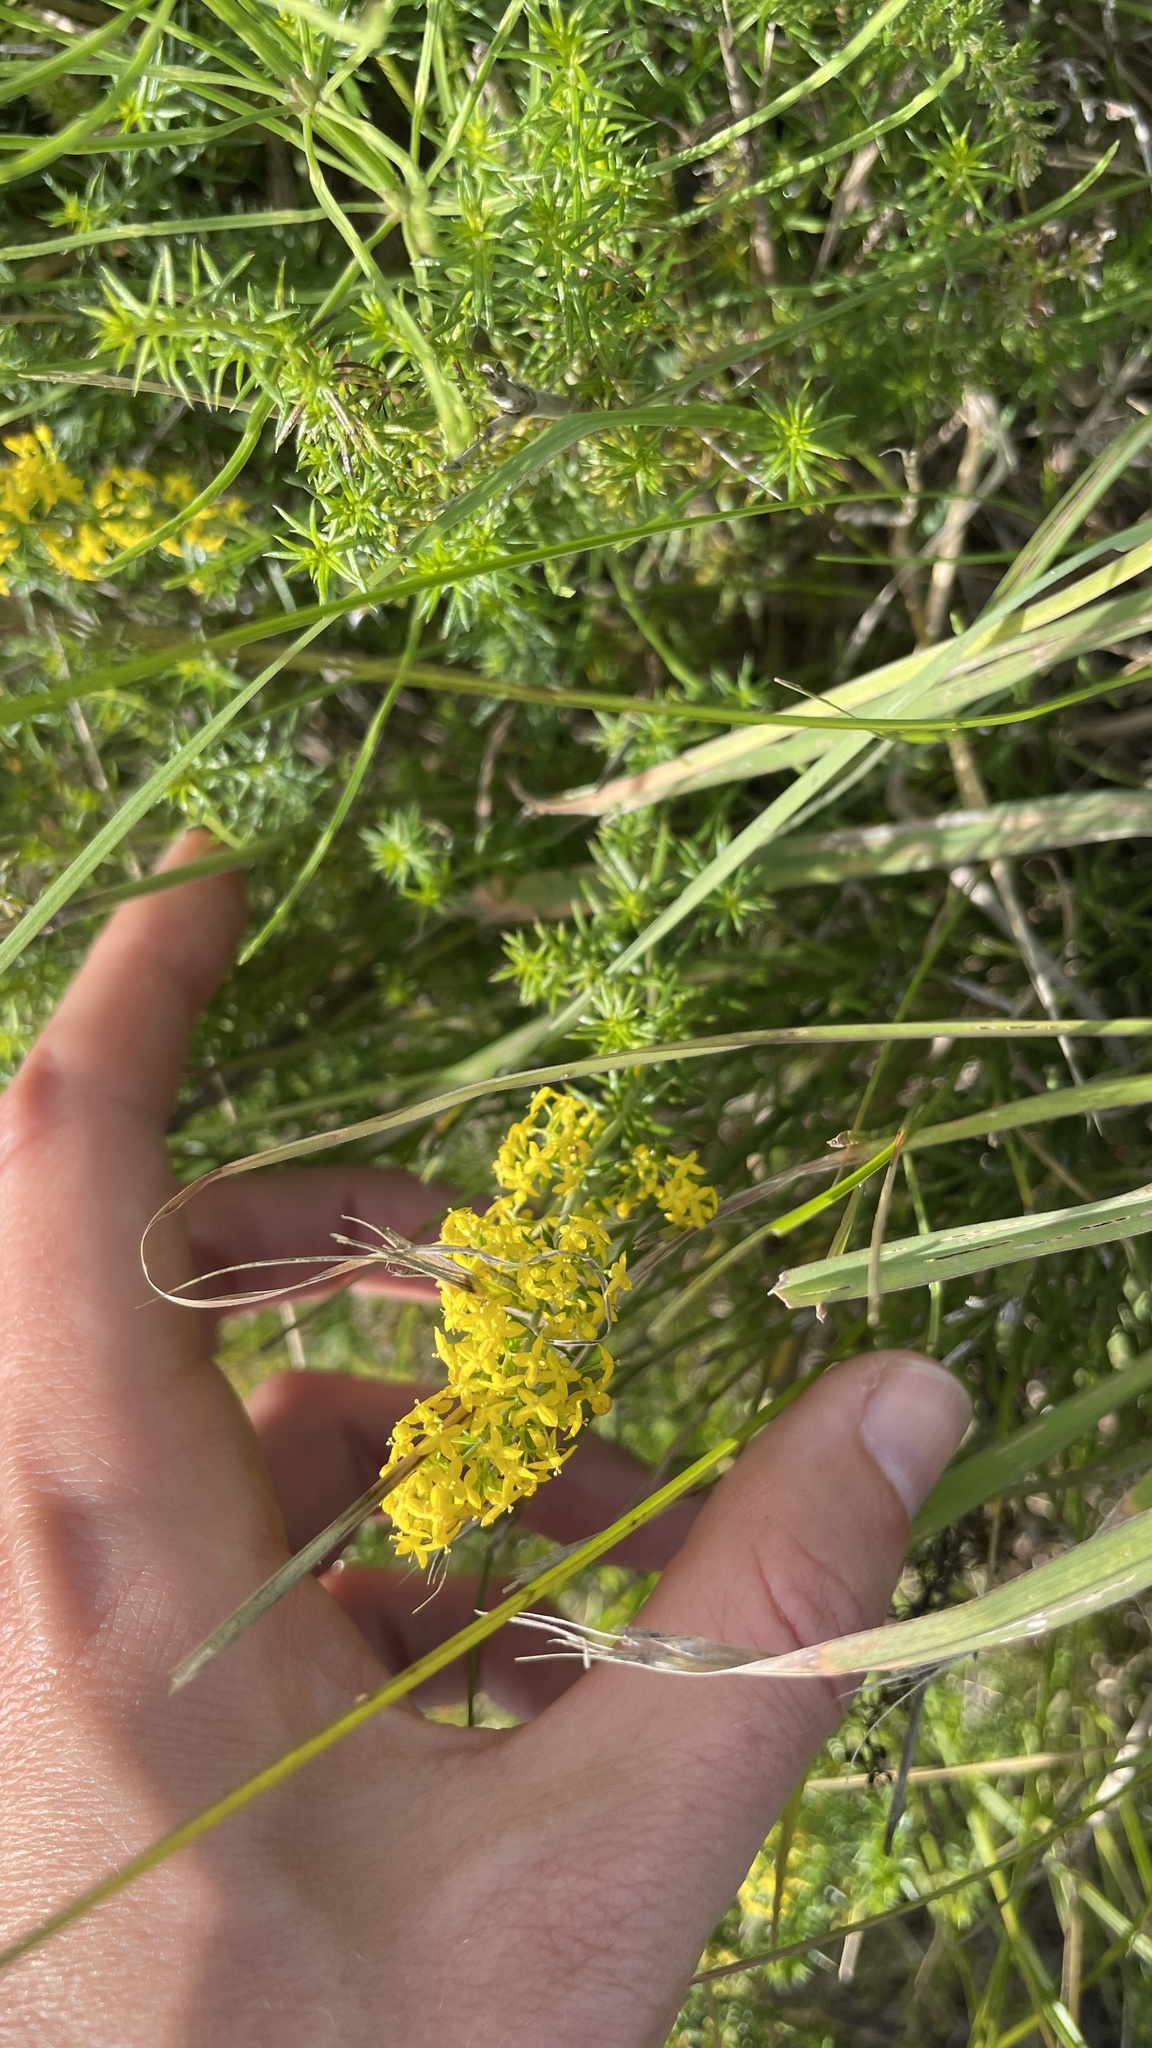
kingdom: Plantae
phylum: Tracheophyta
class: Magnoliopsida
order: Gentianales
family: Rubiaceae
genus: Galium
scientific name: Galium verum
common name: Lady's bedstraw
